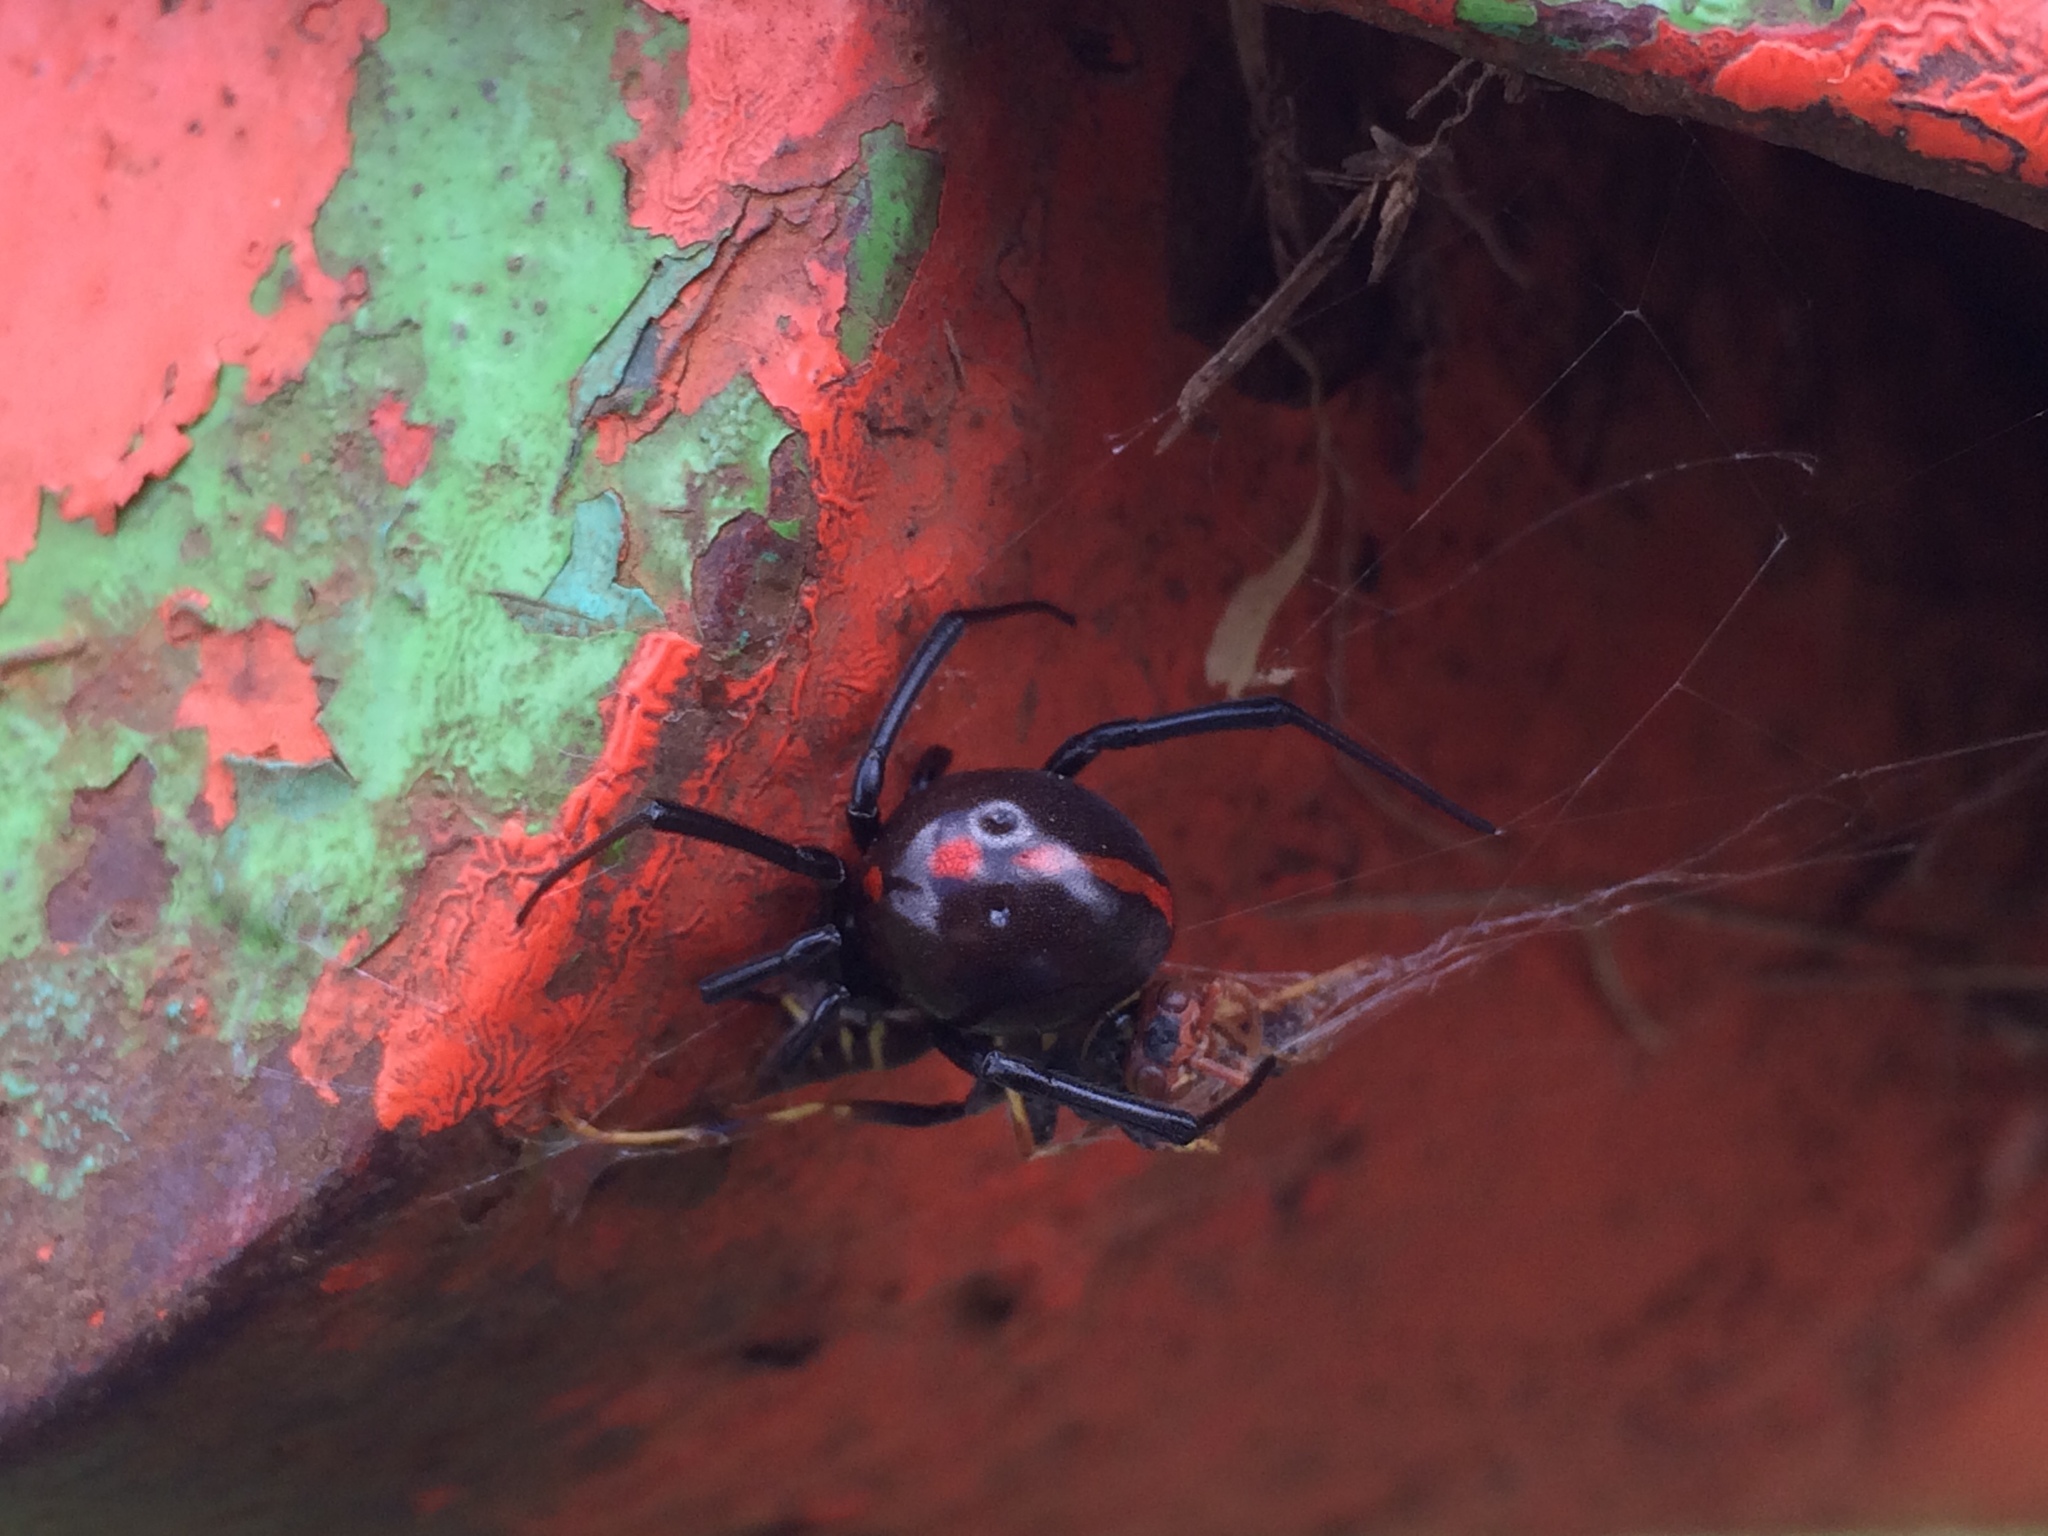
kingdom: Animalia
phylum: Arthropoda
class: Arachnida
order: Araneae
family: Theridiidae
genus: Latrodectus
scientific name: Latrodectus mactans
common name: Cobweb spiders
